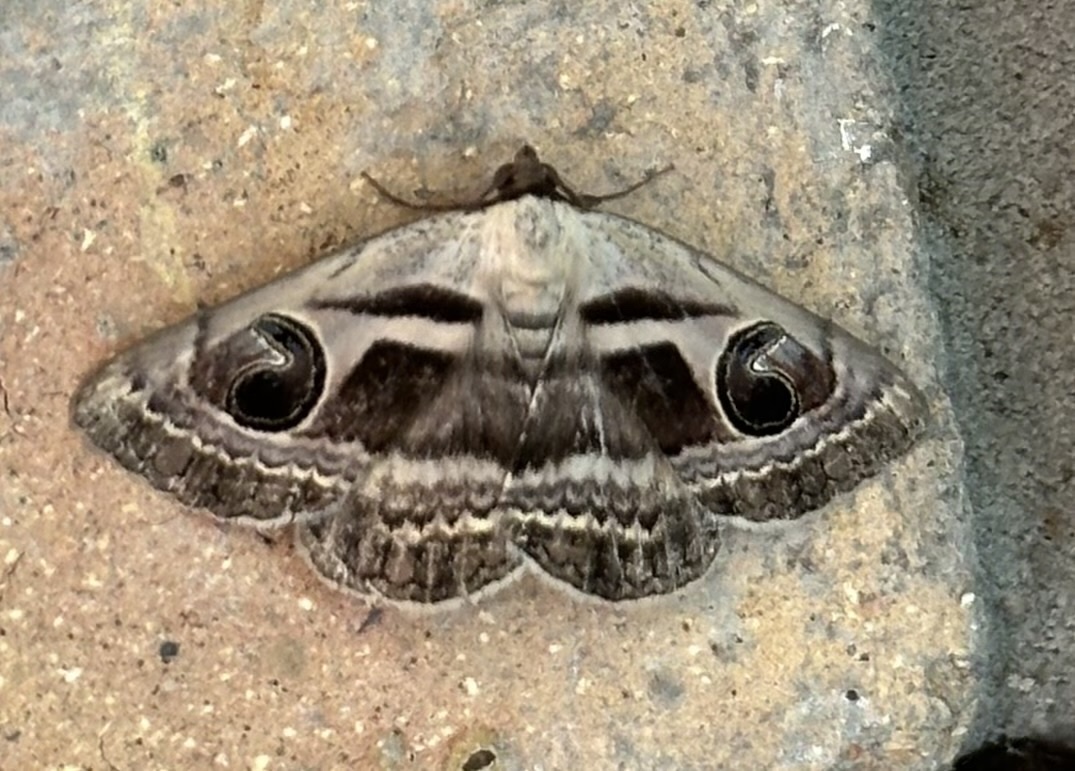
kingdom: Animalia
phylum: Arthropoda
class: Insecta
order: Lepidoptera
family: Erebidae
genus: Cometaster
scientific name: Cometaster pyrula
